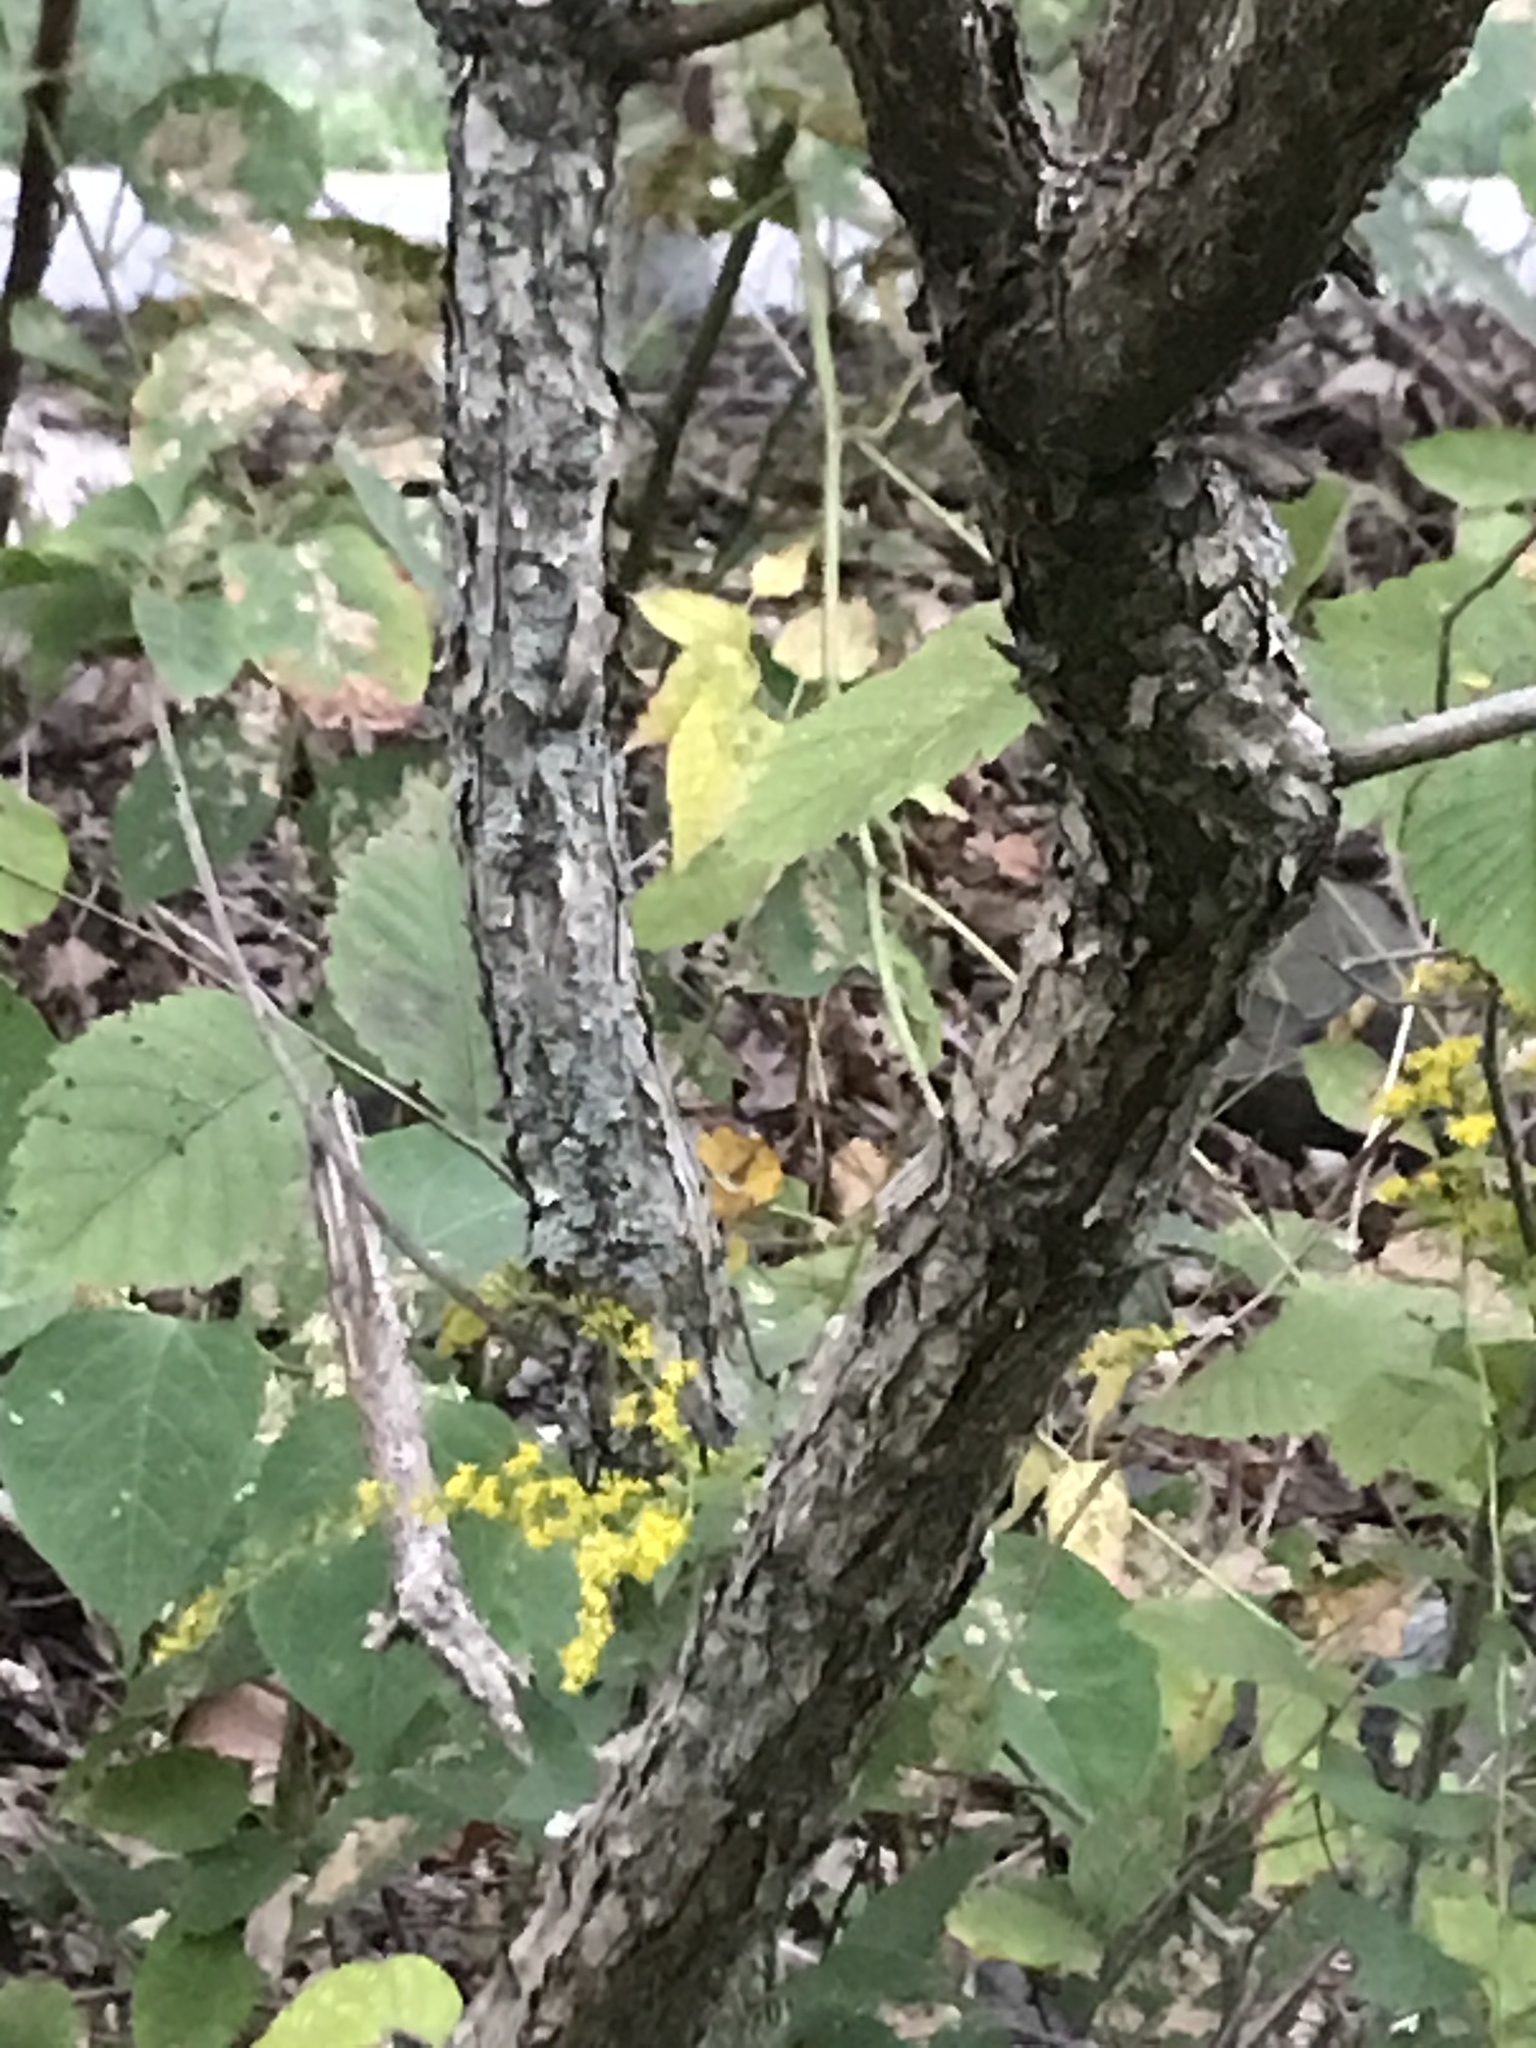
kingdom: Plantae
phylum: Tracheophyta
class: Magnoliopsida
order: Gentianales
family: Rubiaceae
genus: Cephalanthus
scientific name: Cephalanthus occidentalis
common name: Button-willow
